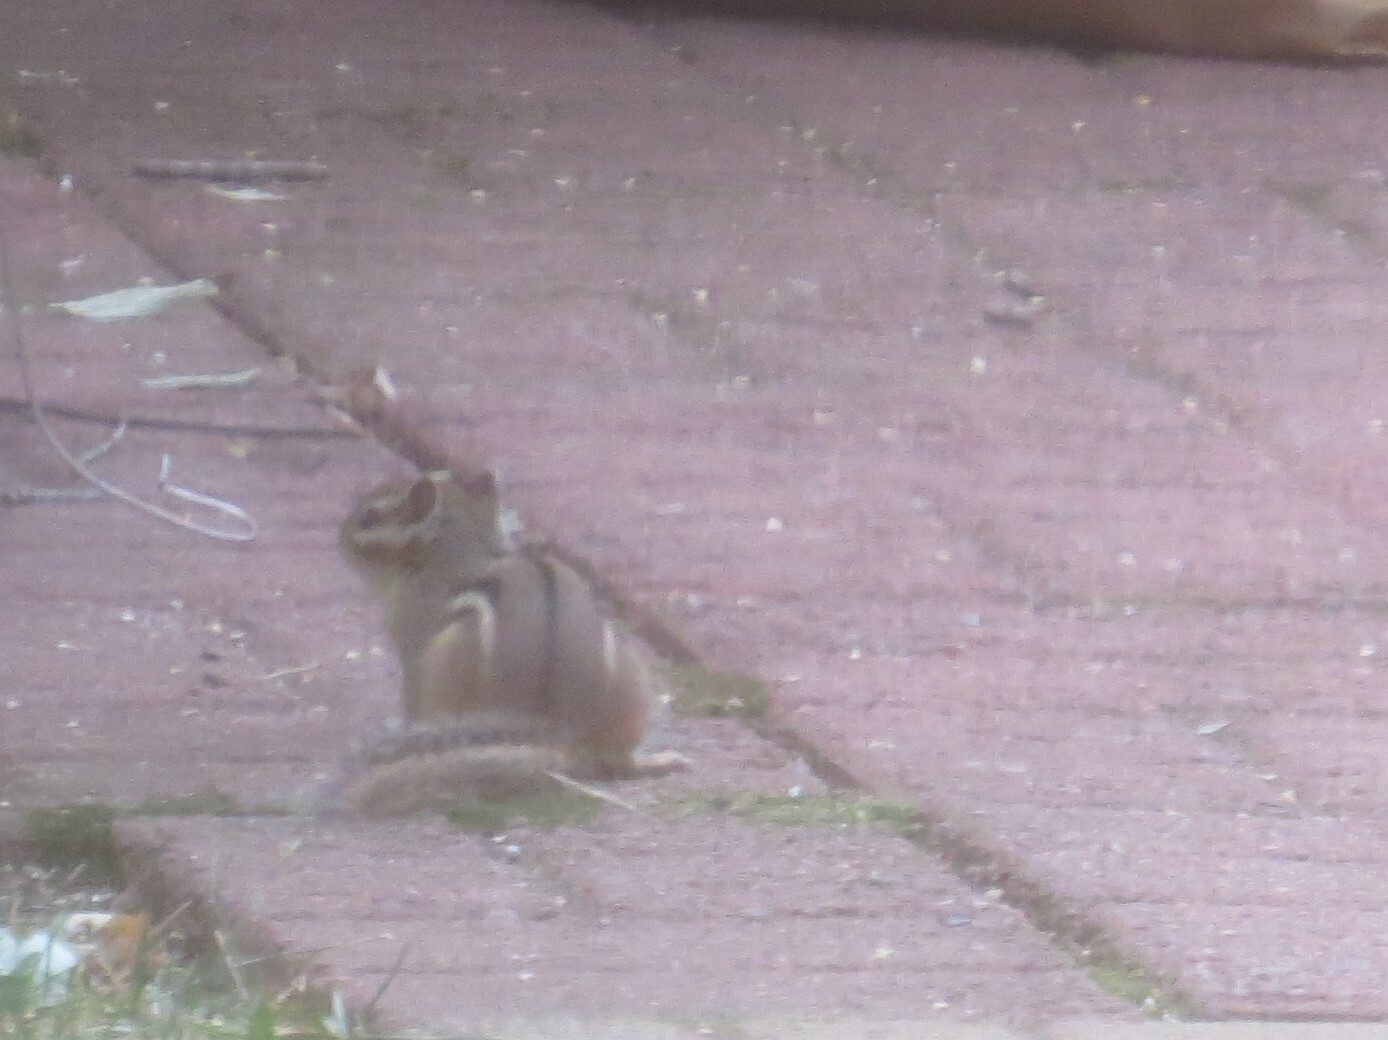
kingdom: Animalia
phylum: Chordata
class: Mammalia
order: Rodentia
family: Sciuridae
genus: Tamias
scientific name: Tamias striatus
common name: Eastern chipmunk
